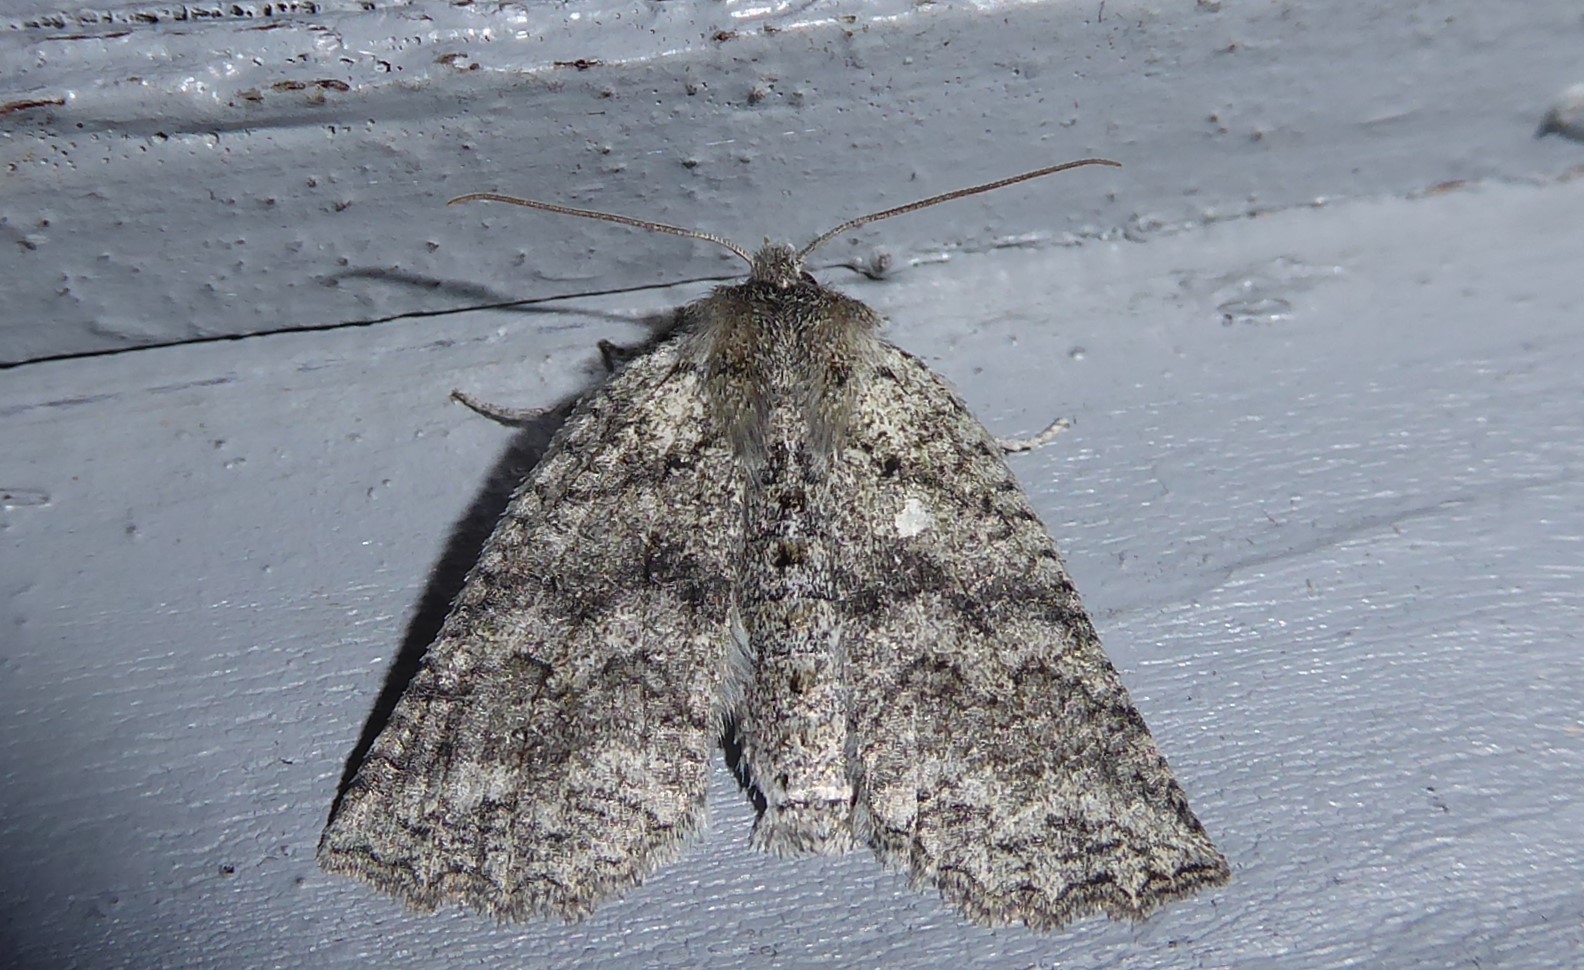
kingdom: Animalia
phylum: Arthropoda
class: Insecta
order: Lepidoptera
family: Geometridae
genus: Declana
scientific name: Declana niveata
